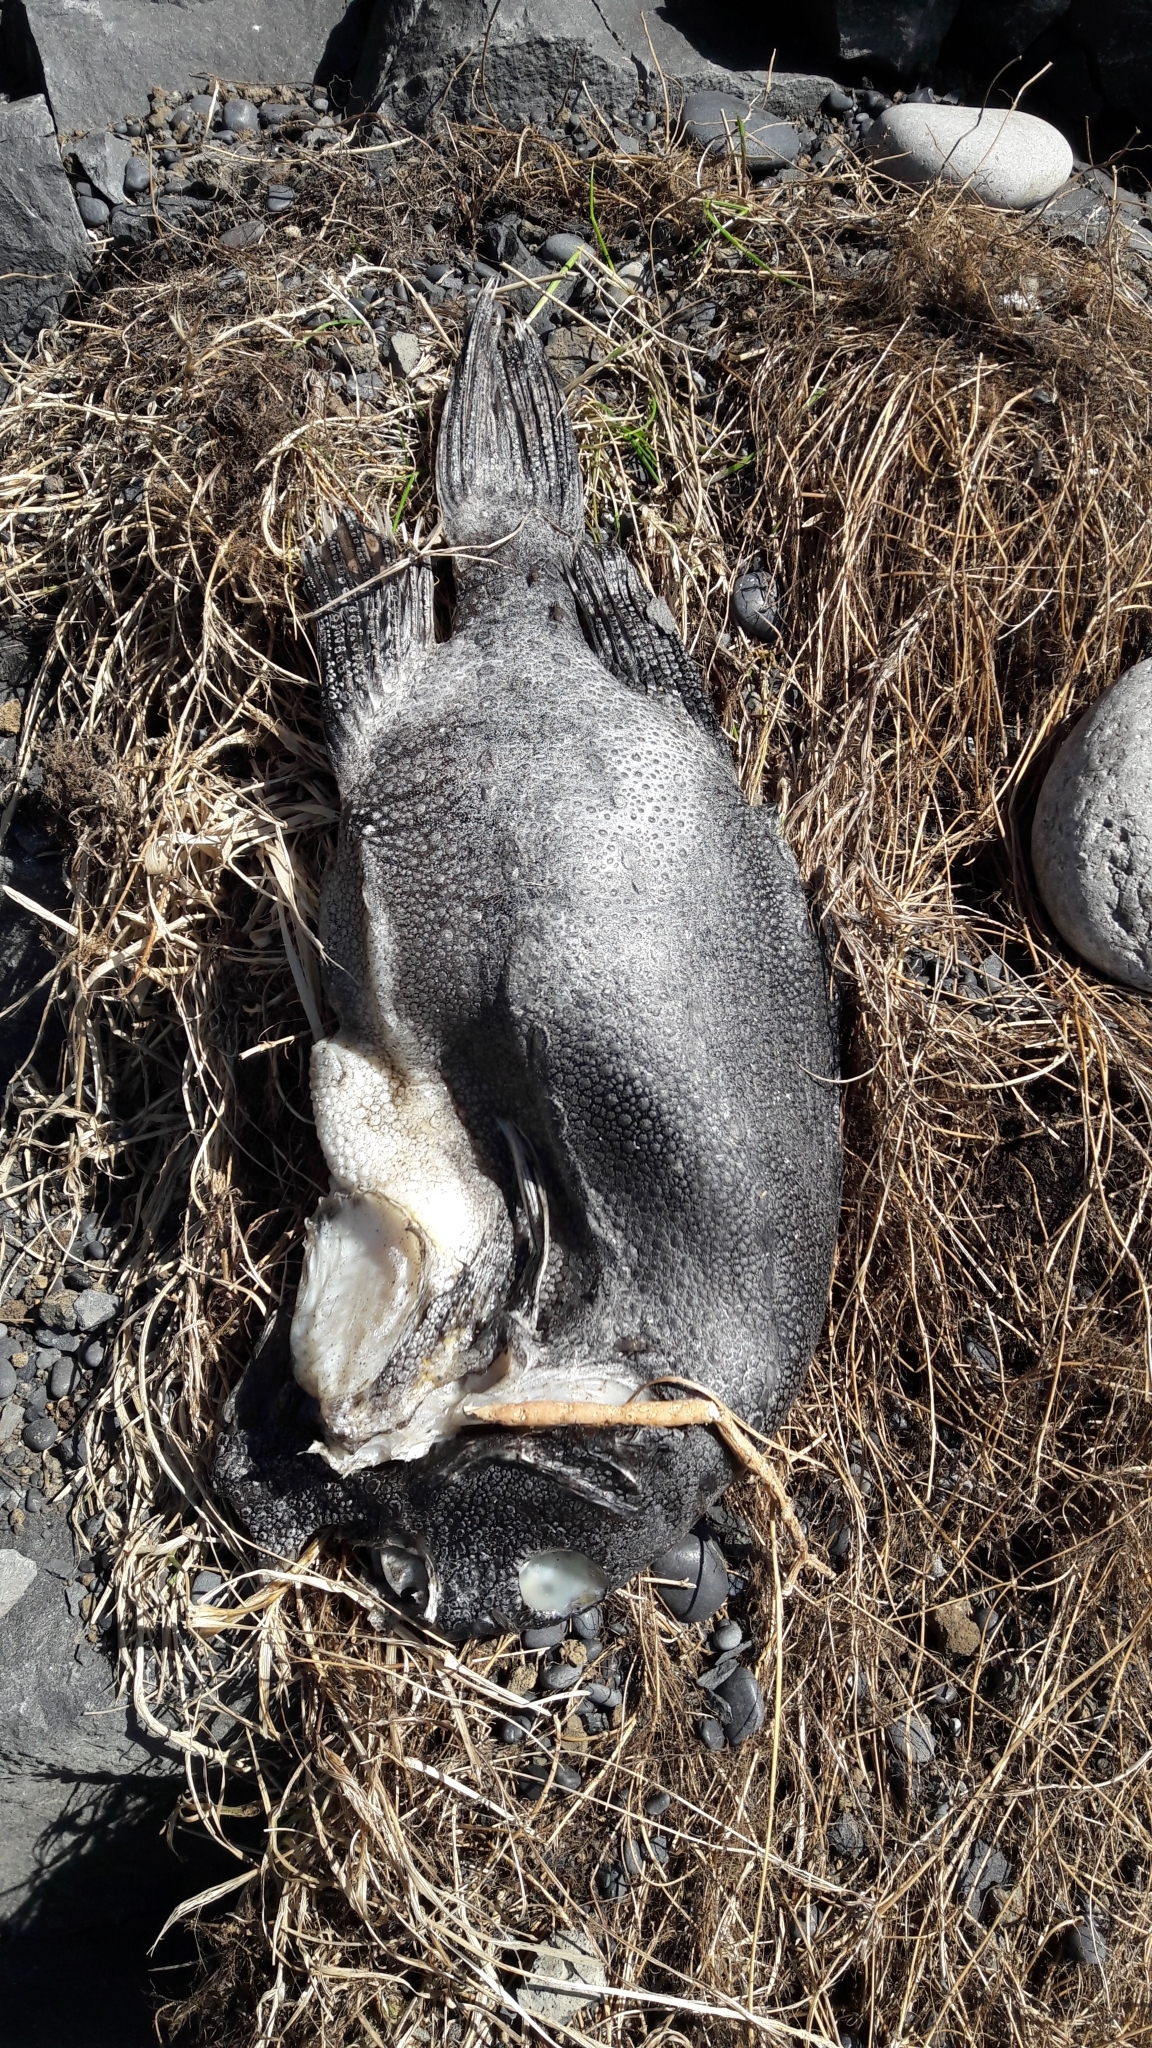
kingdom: Animalia
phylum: Chordata
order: Scorpaeniformes
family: Cyclopteridae
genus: Cyclopterus
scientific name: Cyclopterus lumpus
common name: Lumpsucker
